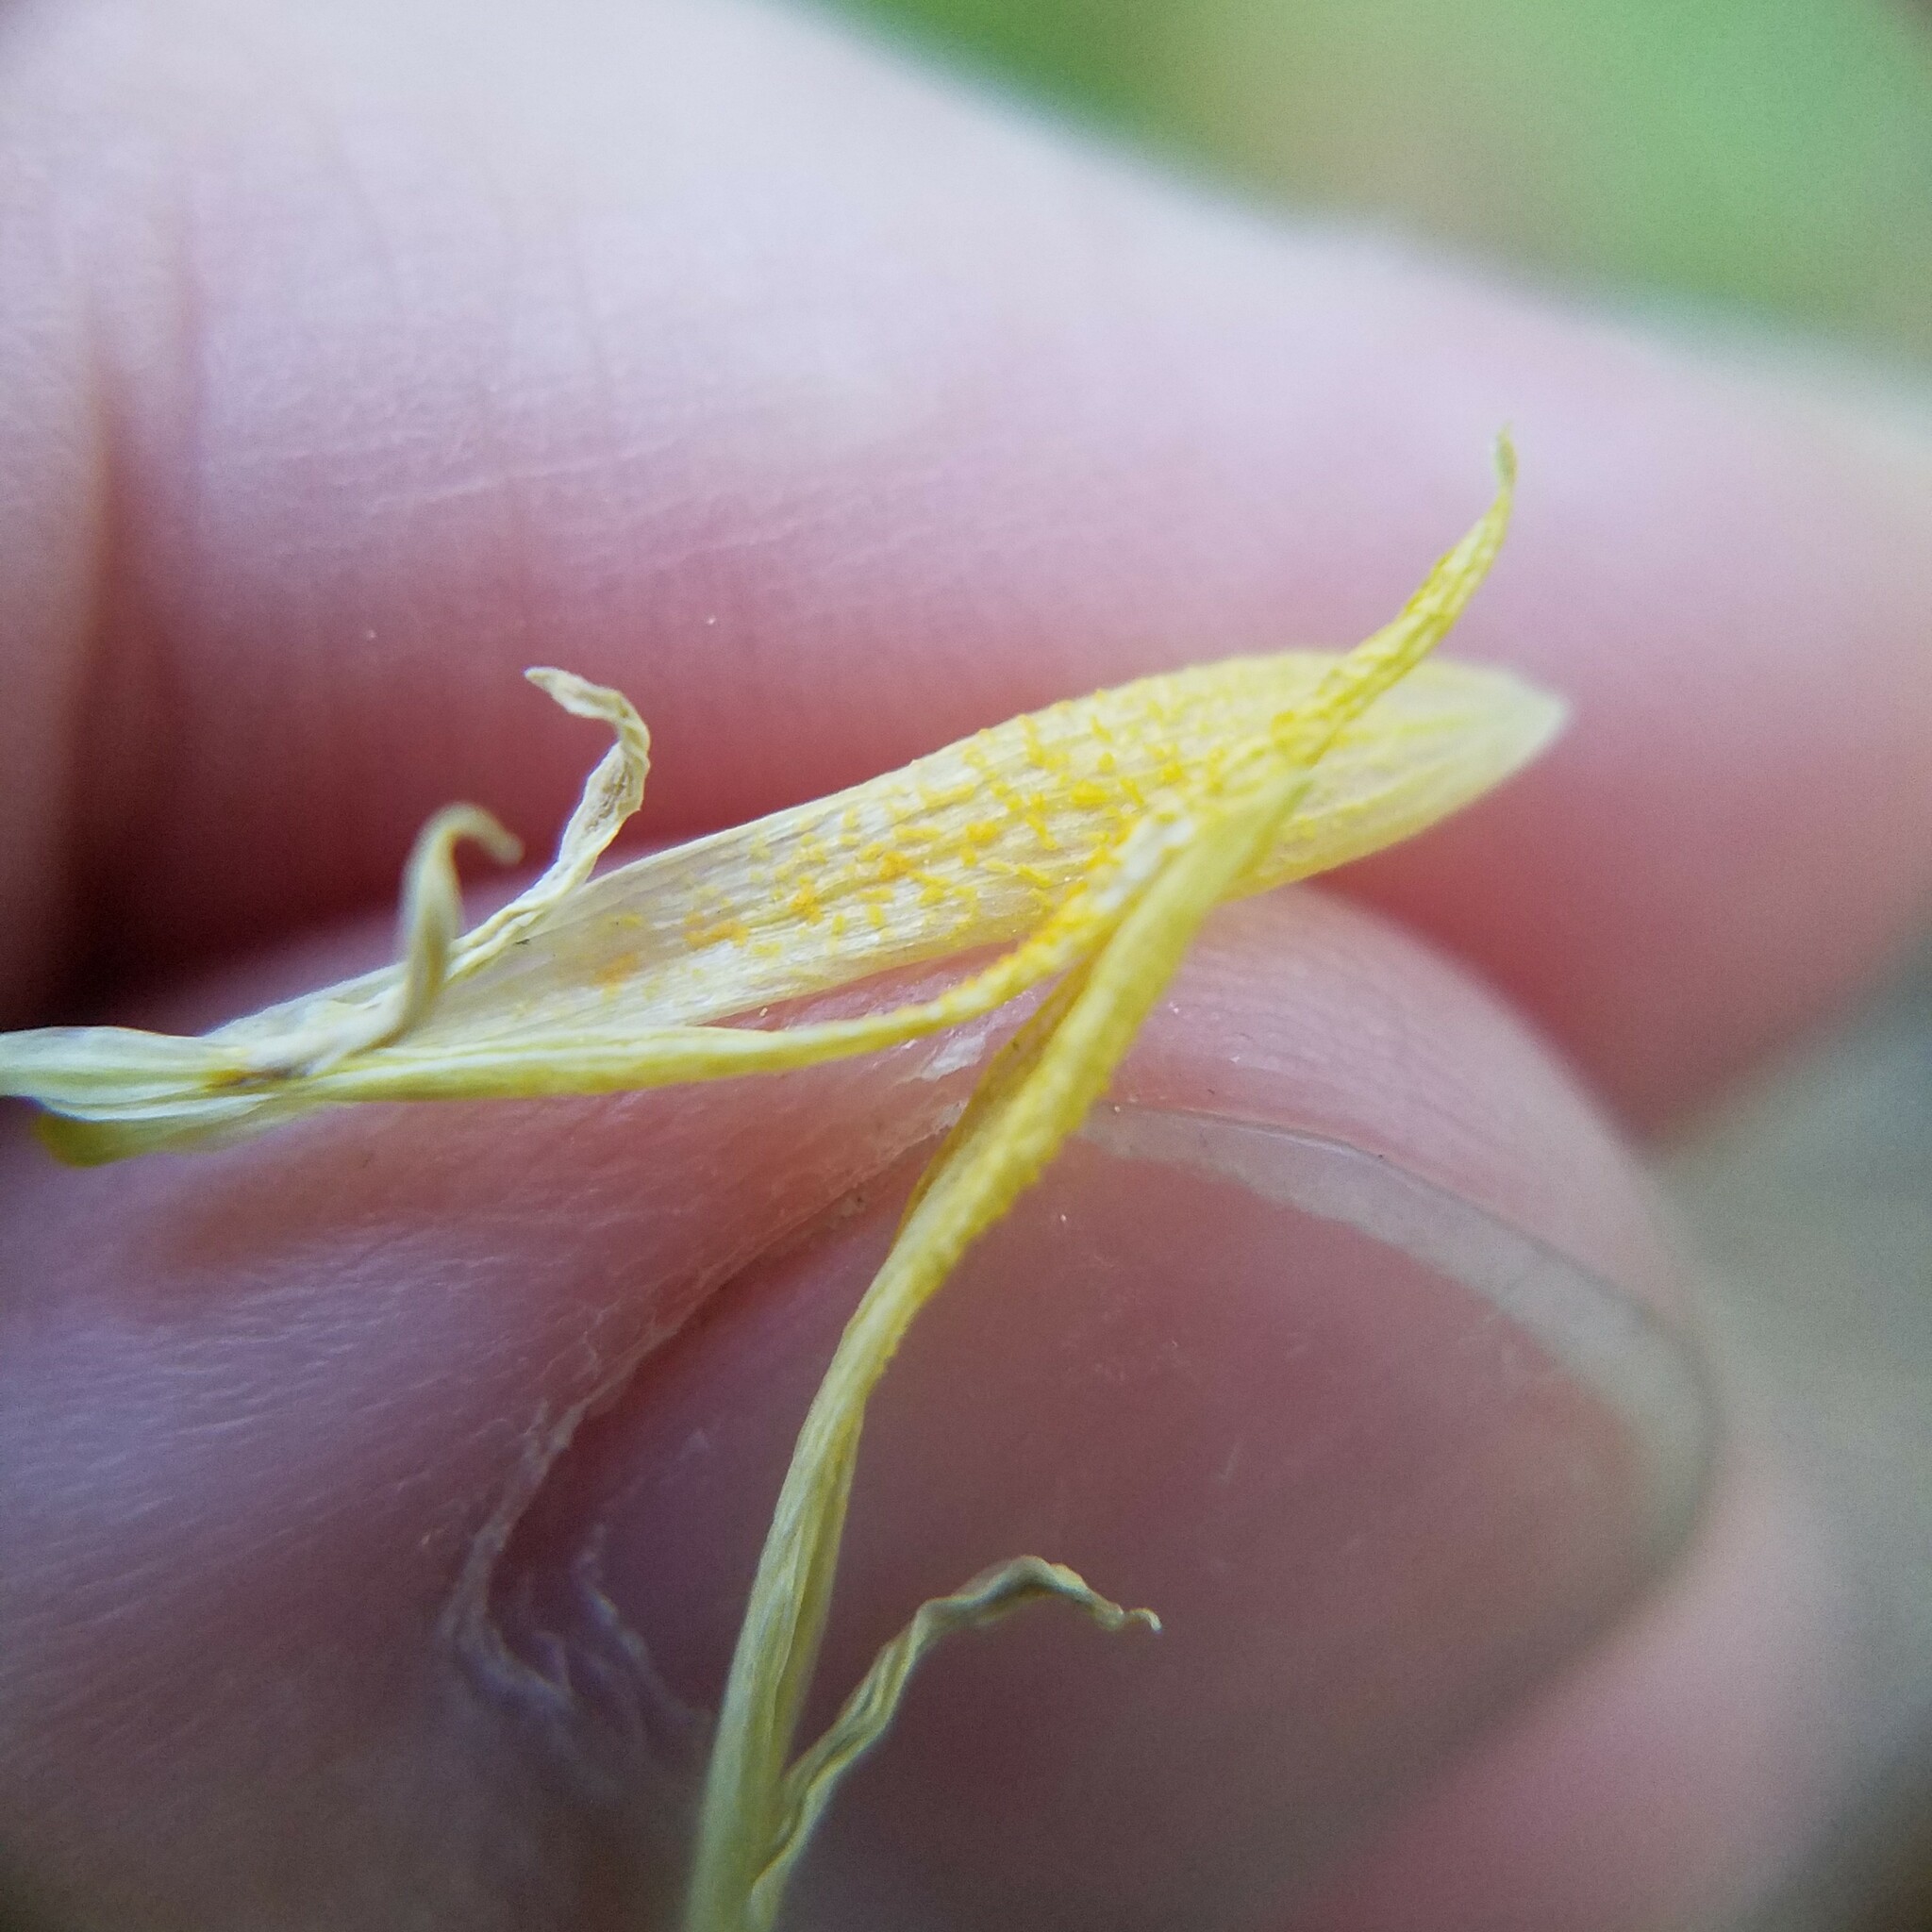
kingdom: Plantae
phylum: Tracheophyta
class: Liliopsida
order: Liliales
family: Colchicaceae
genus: Uvularia
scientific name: Uvularia perfoliata
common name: Perfoliate bellwort
